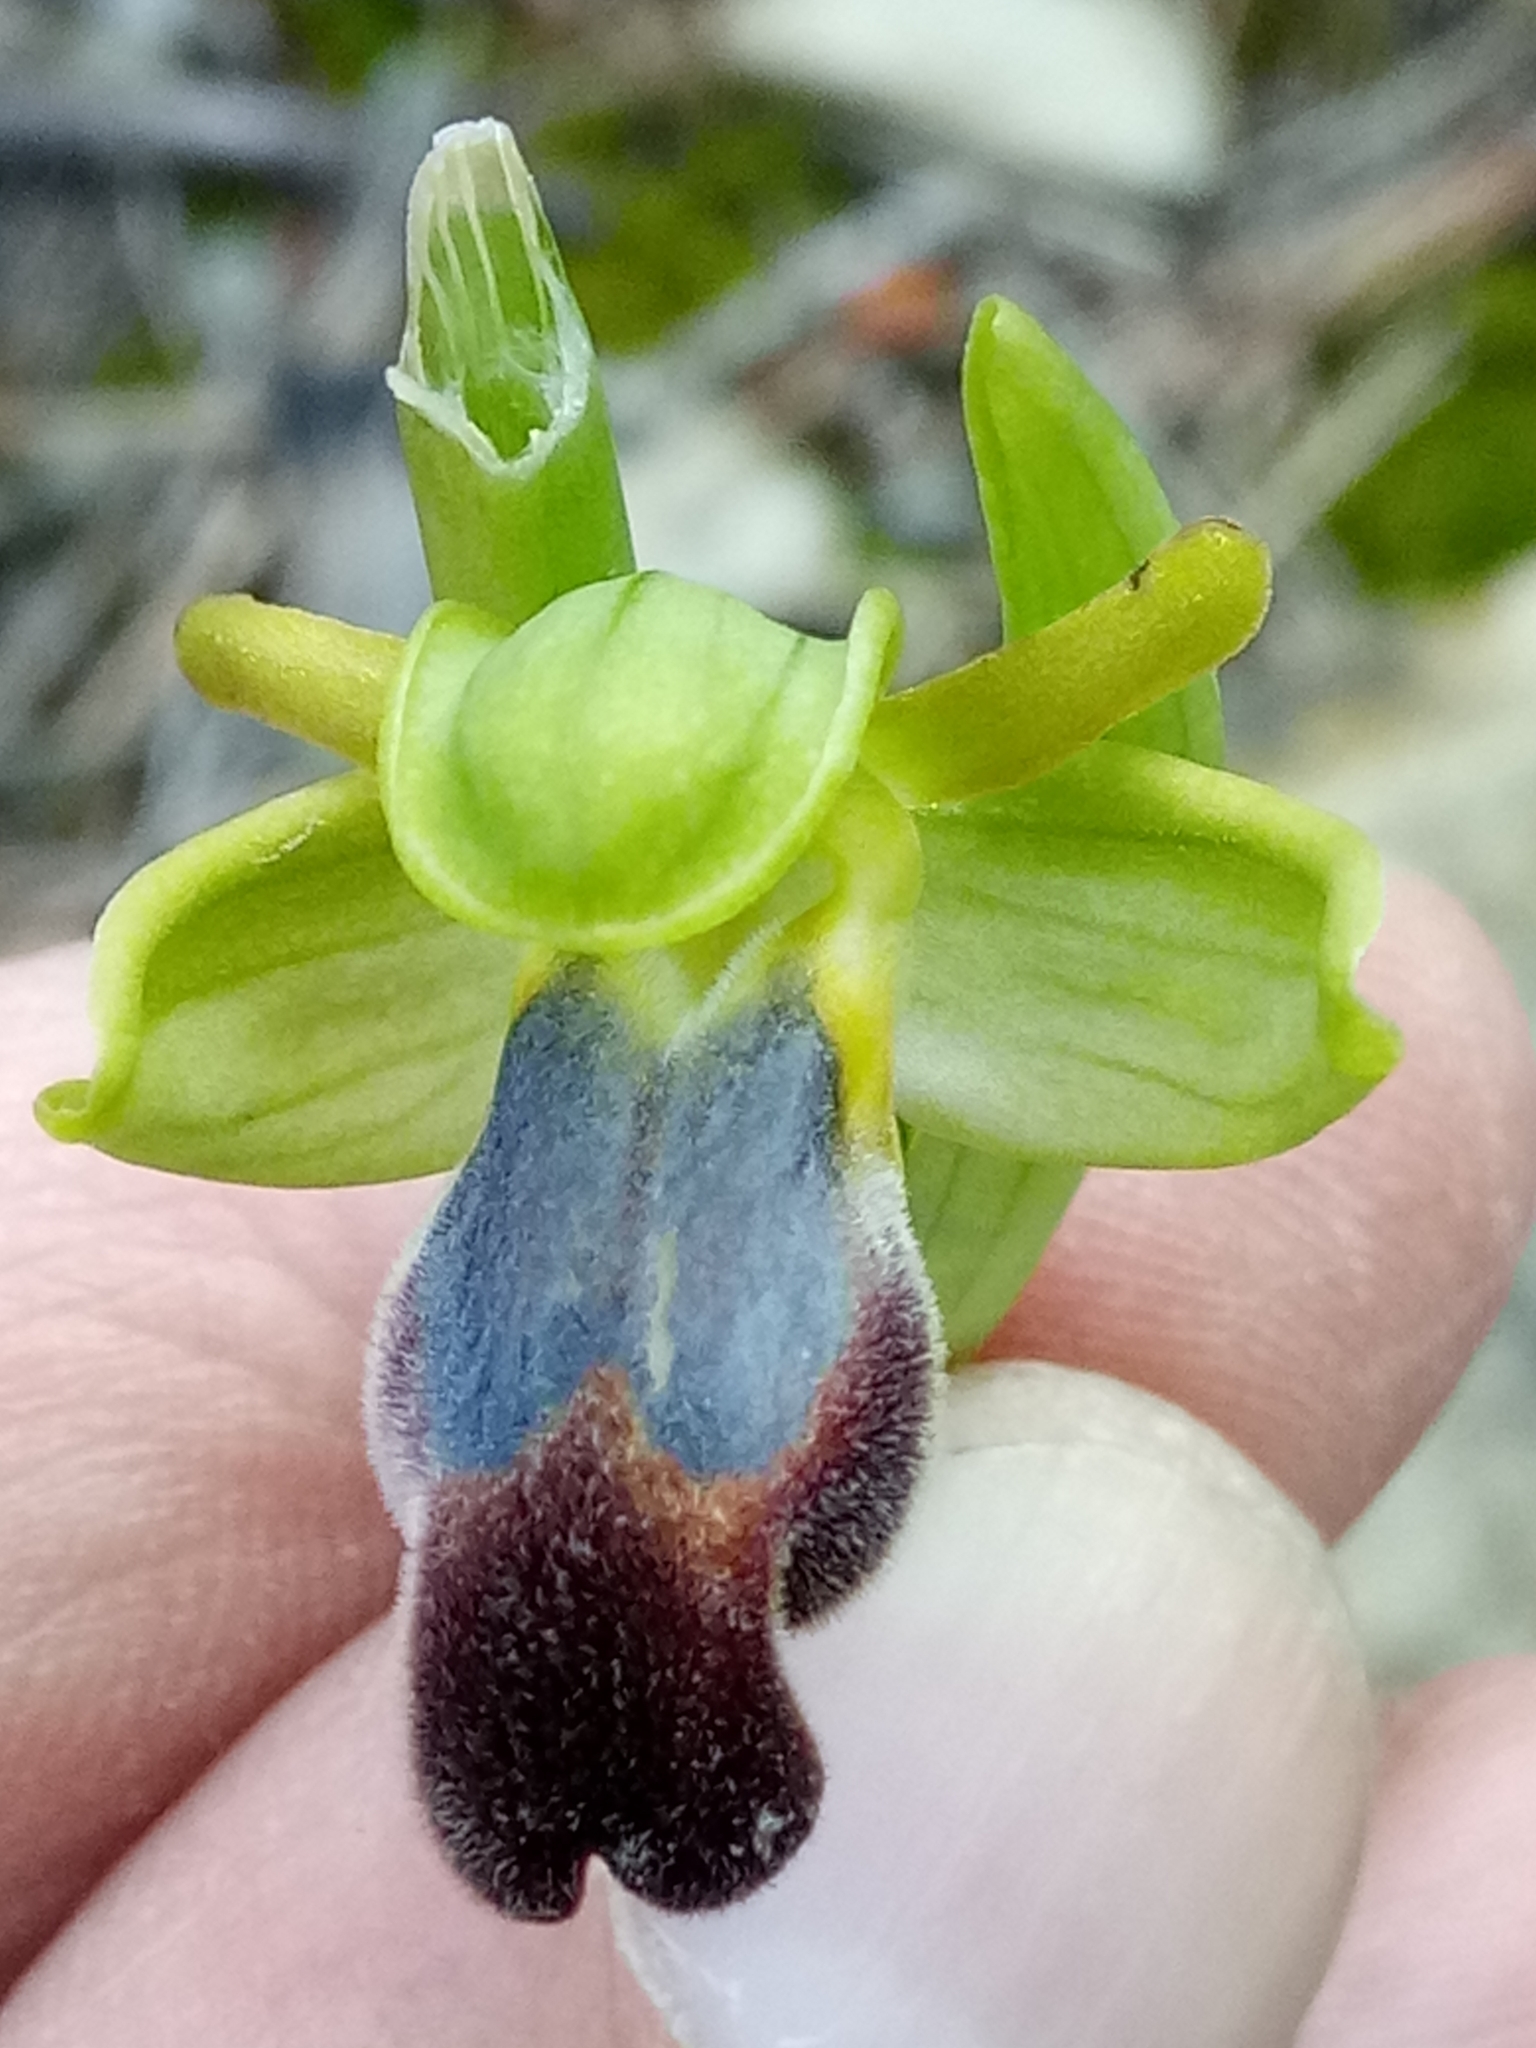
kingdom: Plantae
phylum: Tracheophyta
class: Liliopsida
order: Asparagales
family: Orchidaceae
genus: Ophrys
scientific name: Ophrys fusca
